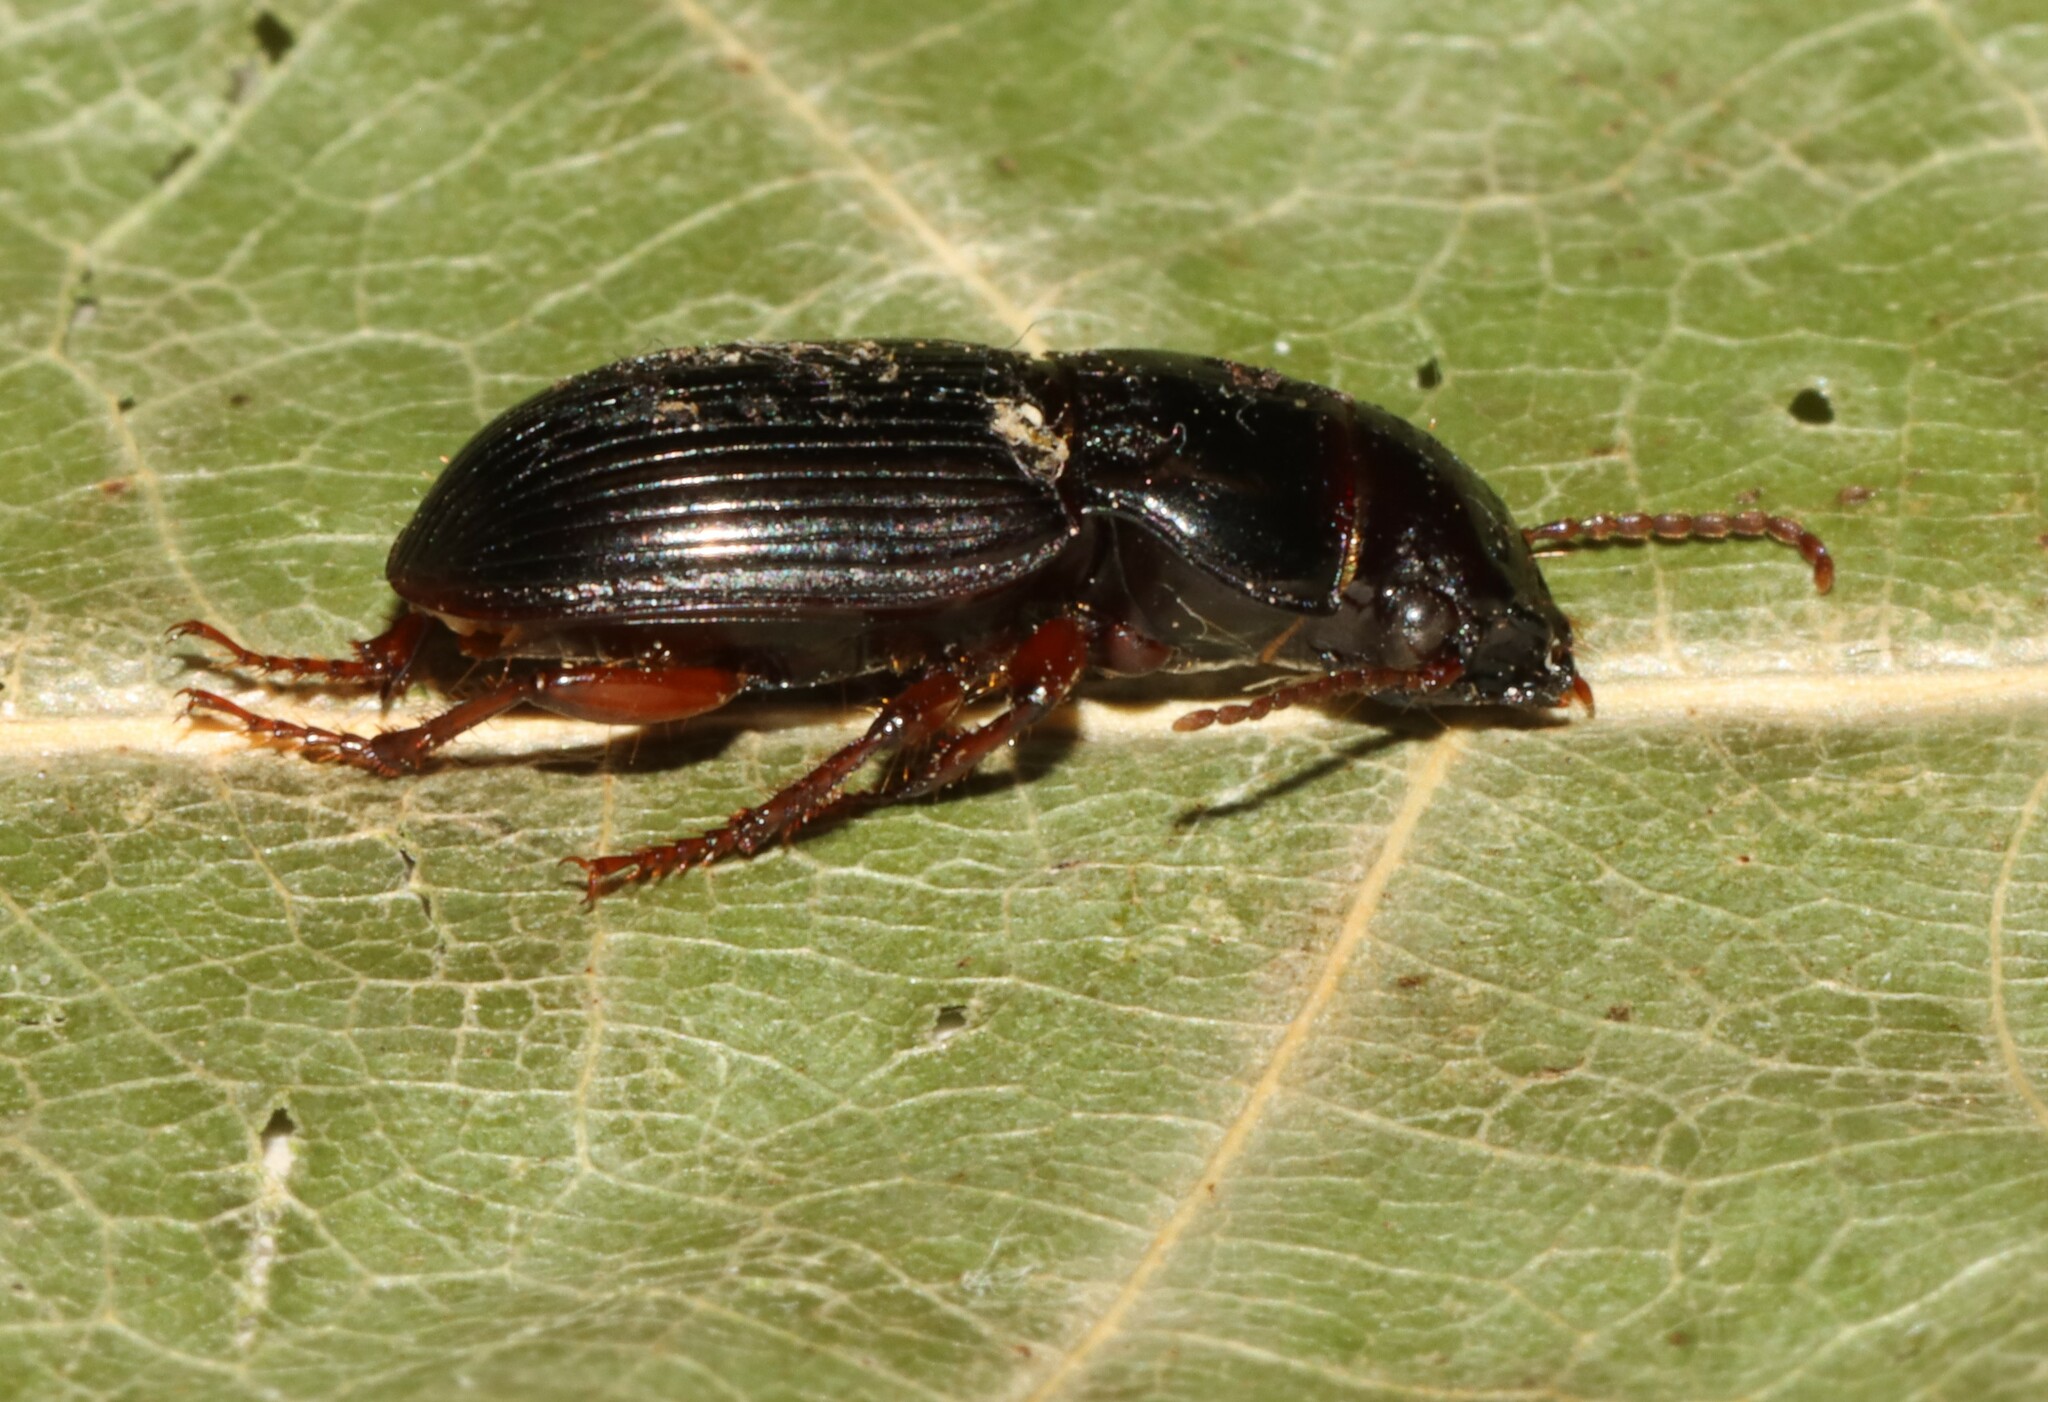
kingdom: Animalia
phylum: Arthropoda
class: Insecta
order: Coleoptera
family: Carabidae
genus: Cratacanthus
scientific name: Cratacanthus dubius
